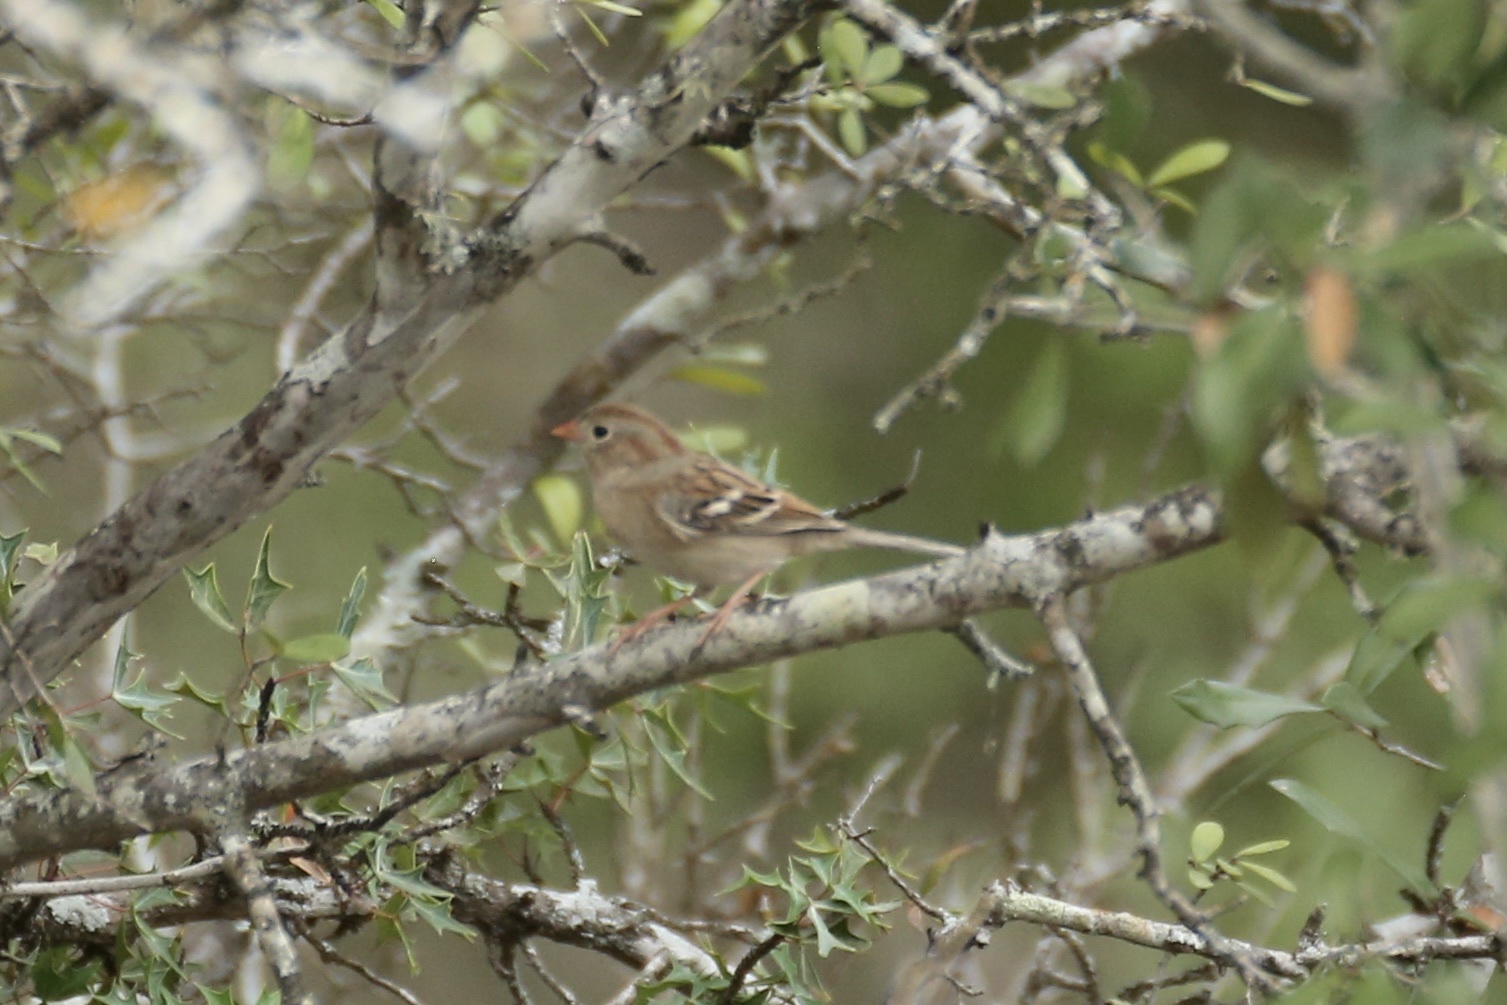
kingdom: Animalia
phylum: Chordata
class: Aves
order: Passeriformes
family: Passerellidae
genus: Spizella
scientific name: Spizella pusilla
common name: Field sparrow
